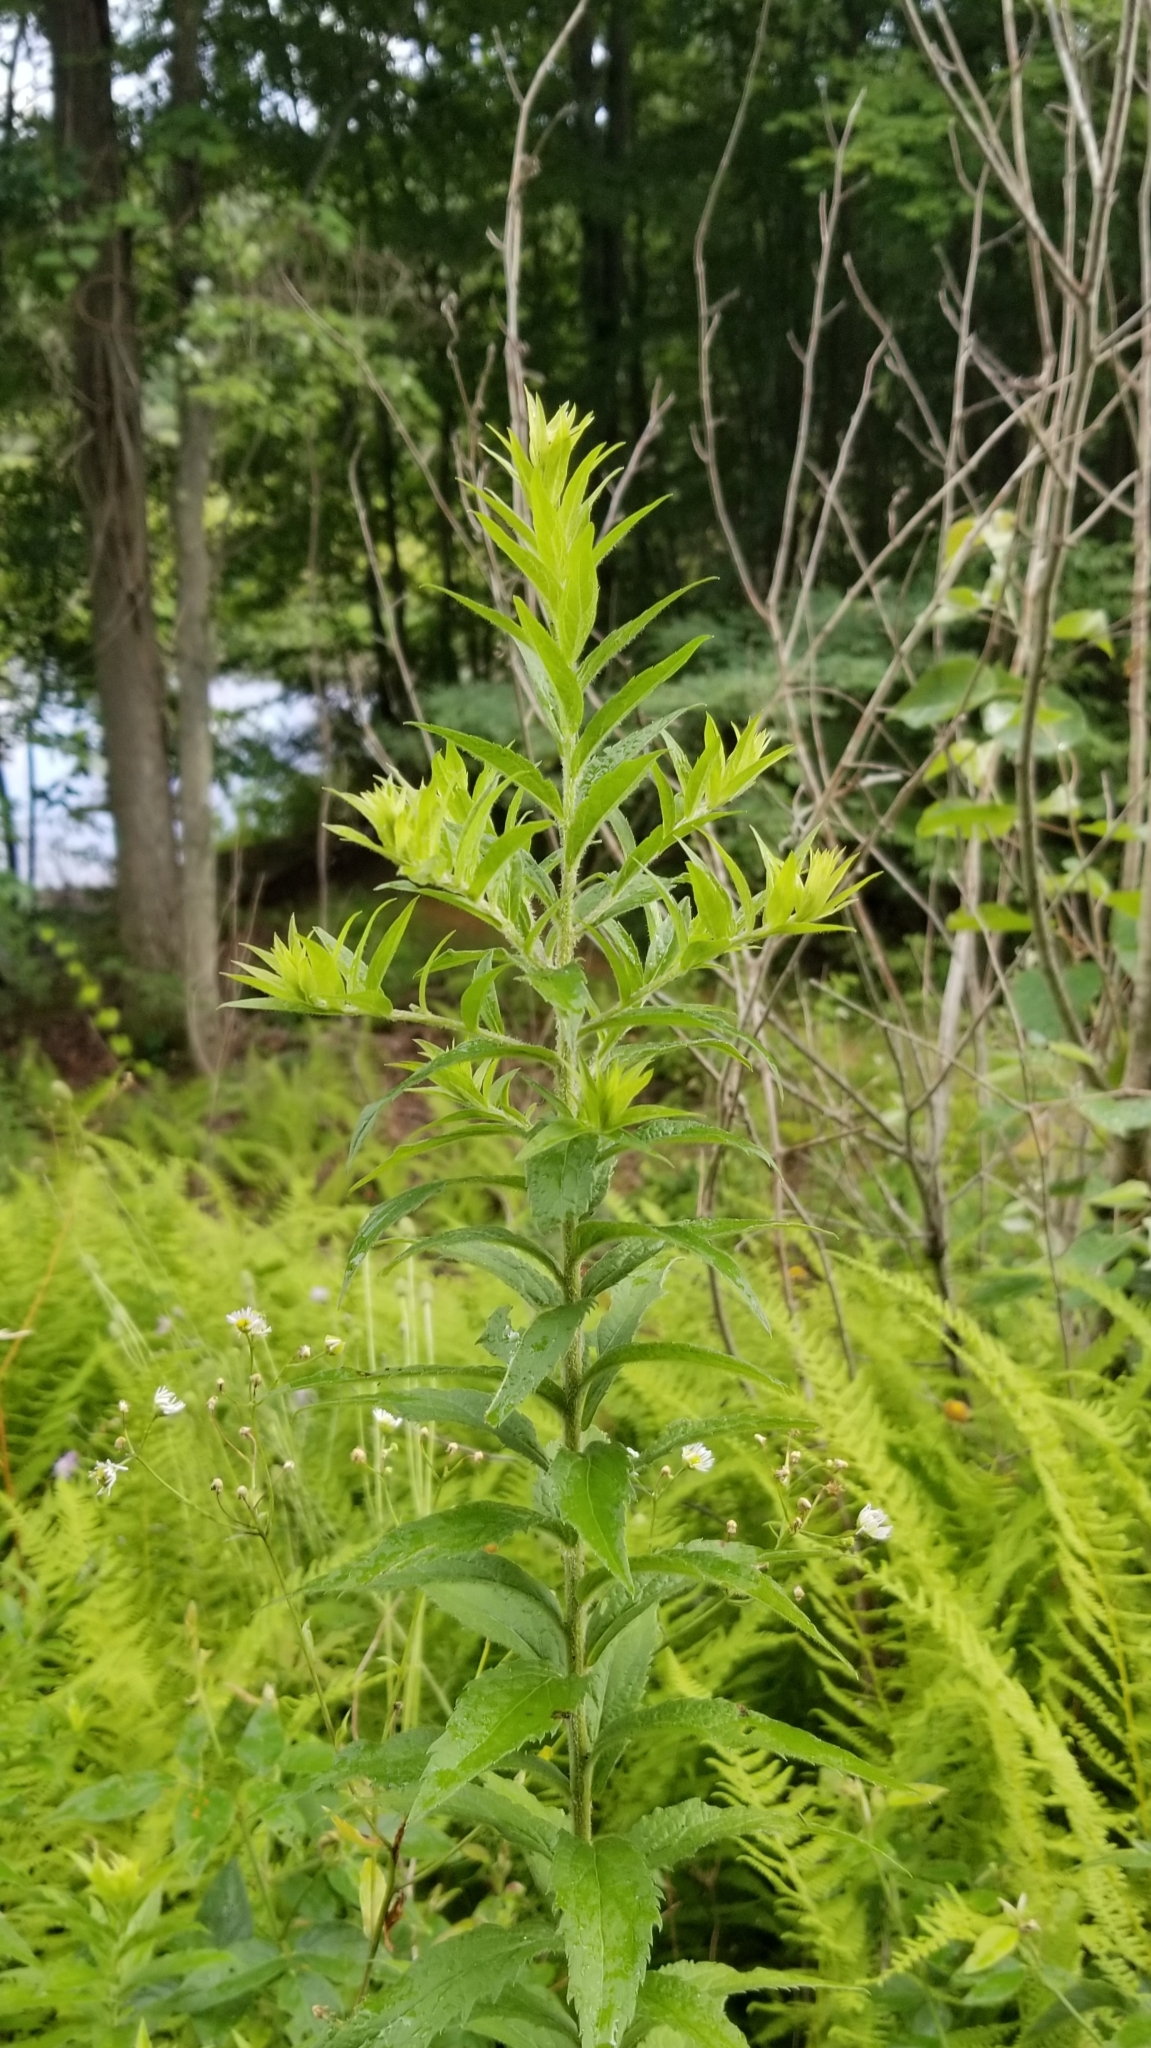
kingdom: Plantae
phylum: Tracheophyta
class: Magnoliopsida
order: Asterales
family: Asteraceae
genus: Solidago
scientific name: Solidago rugosa
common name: Rough-stemmed goldenrod
